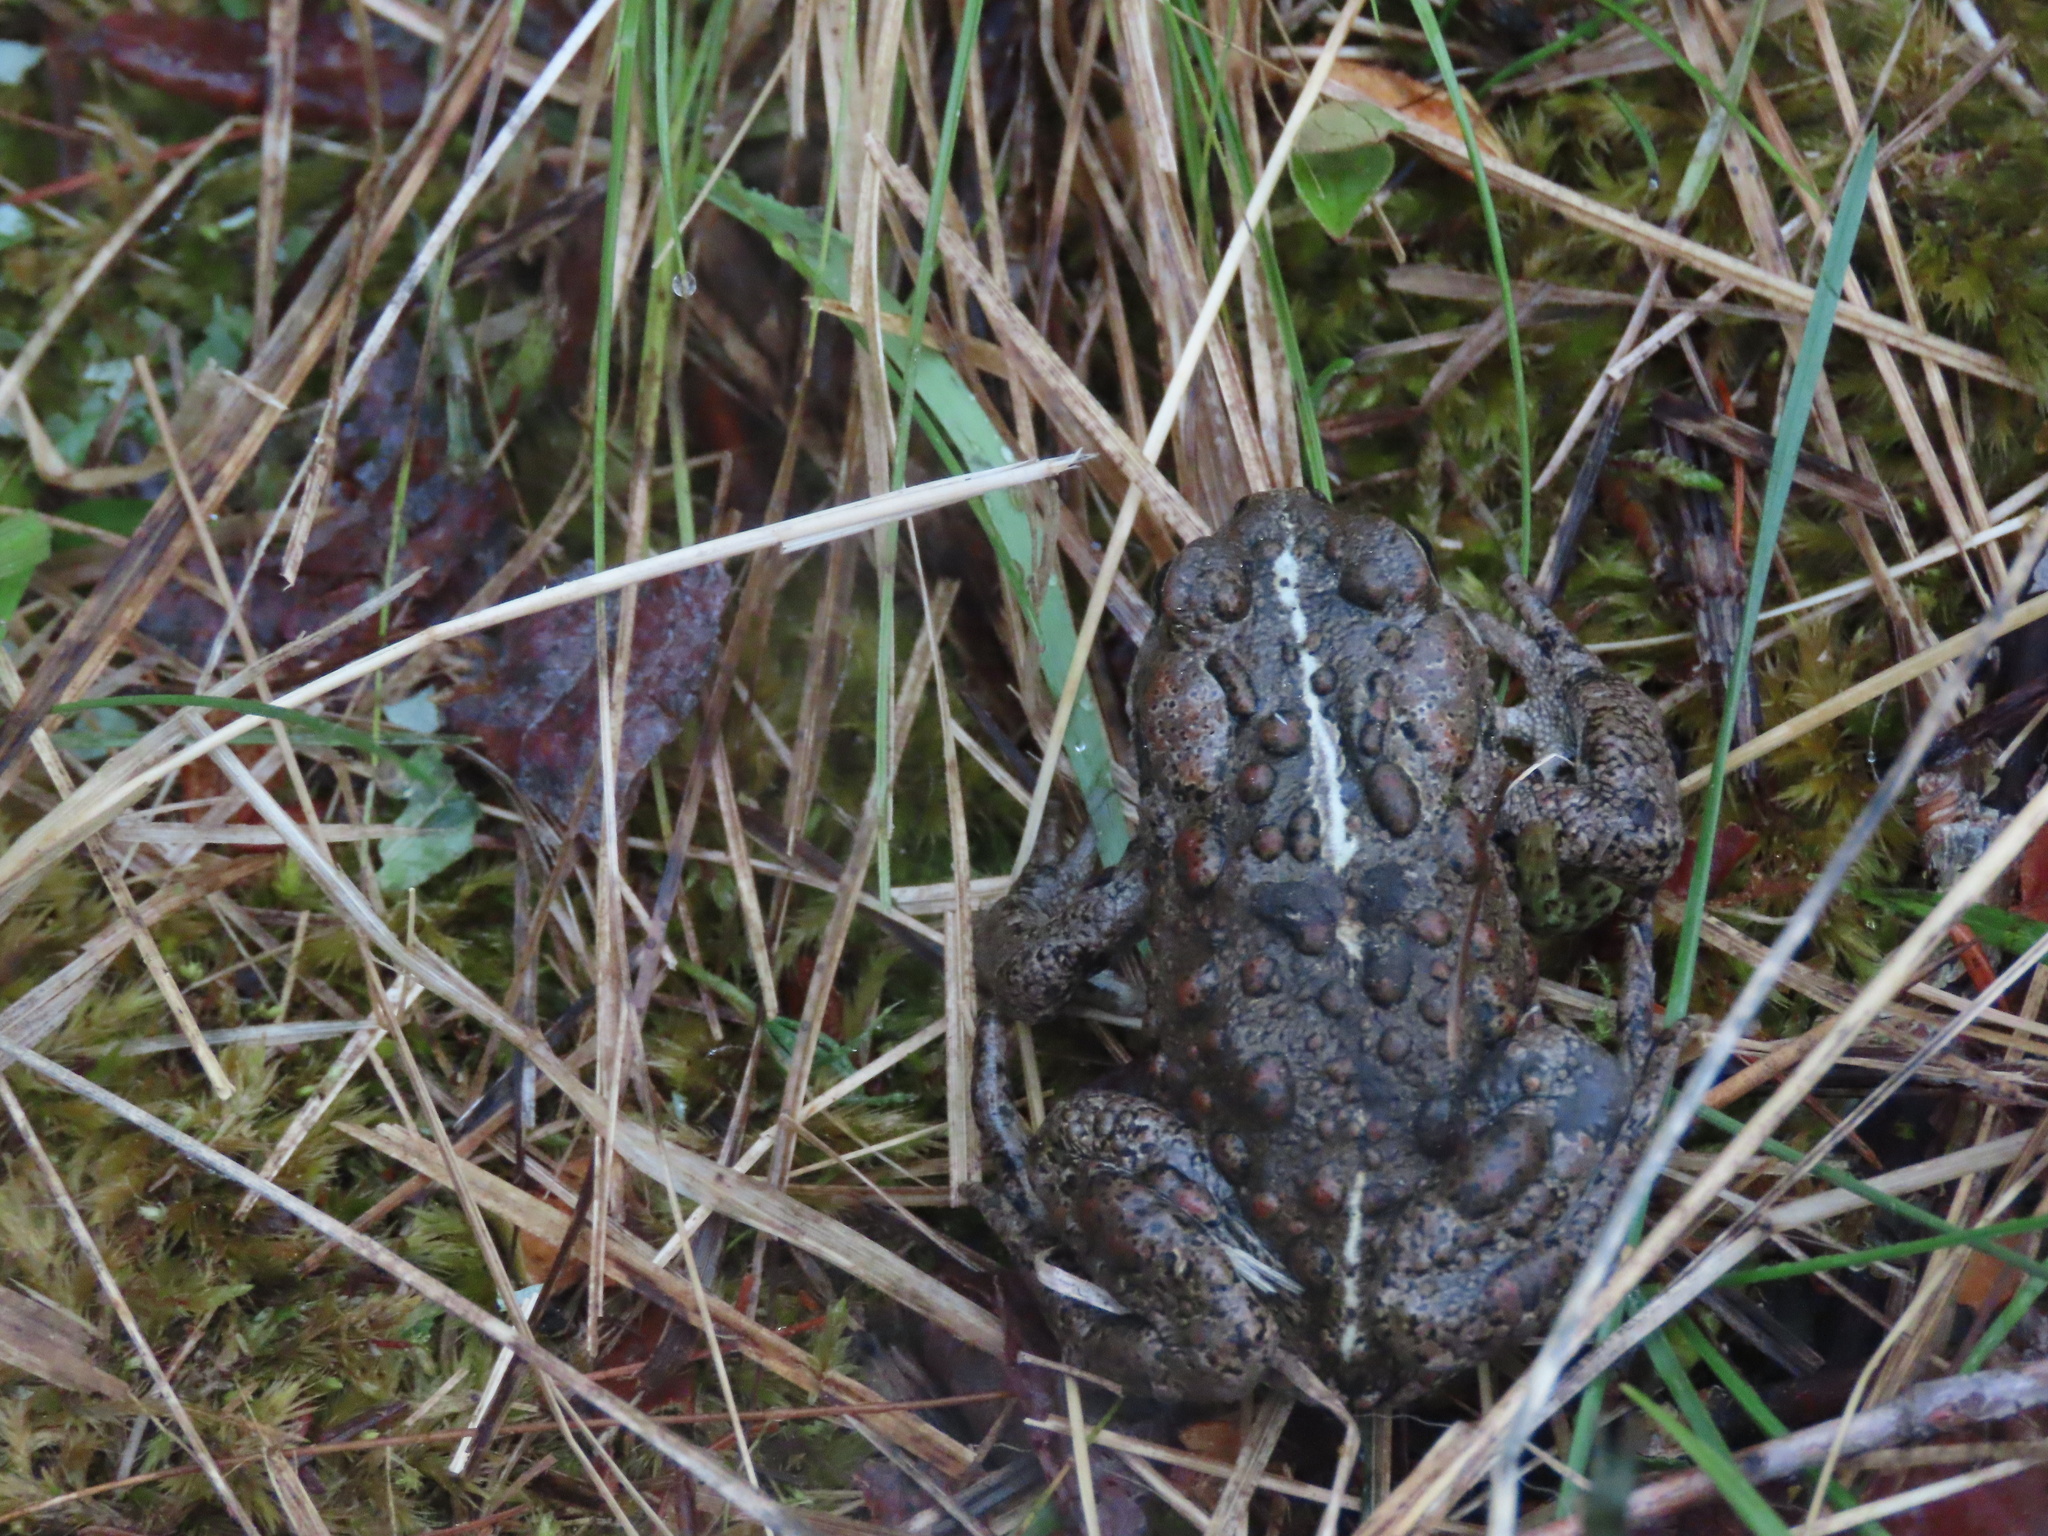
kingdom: Animalia
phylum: Chordata
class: Amphibia
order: Anura
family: Bufonidae
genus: Anaxyrus
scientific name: Anaxyrus boreas
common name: Western toad
